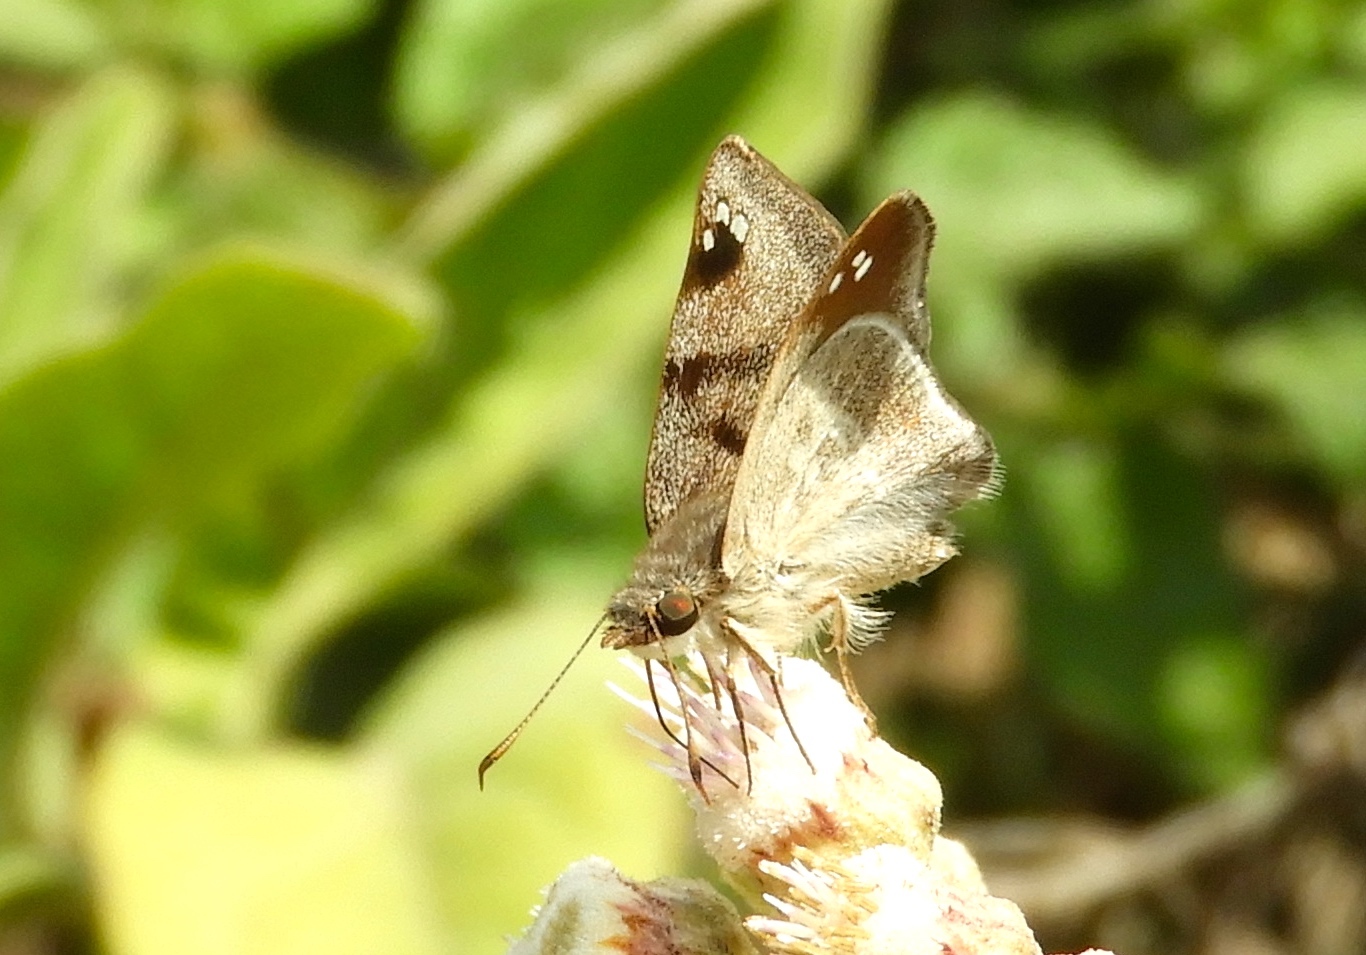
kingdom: Animalia
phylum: Arthropoda
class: Insecta
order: Lepidoptera
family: Hesperiidae
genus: Arteurotia
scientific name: Arteurotia tractipennis
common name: Starred skipper
